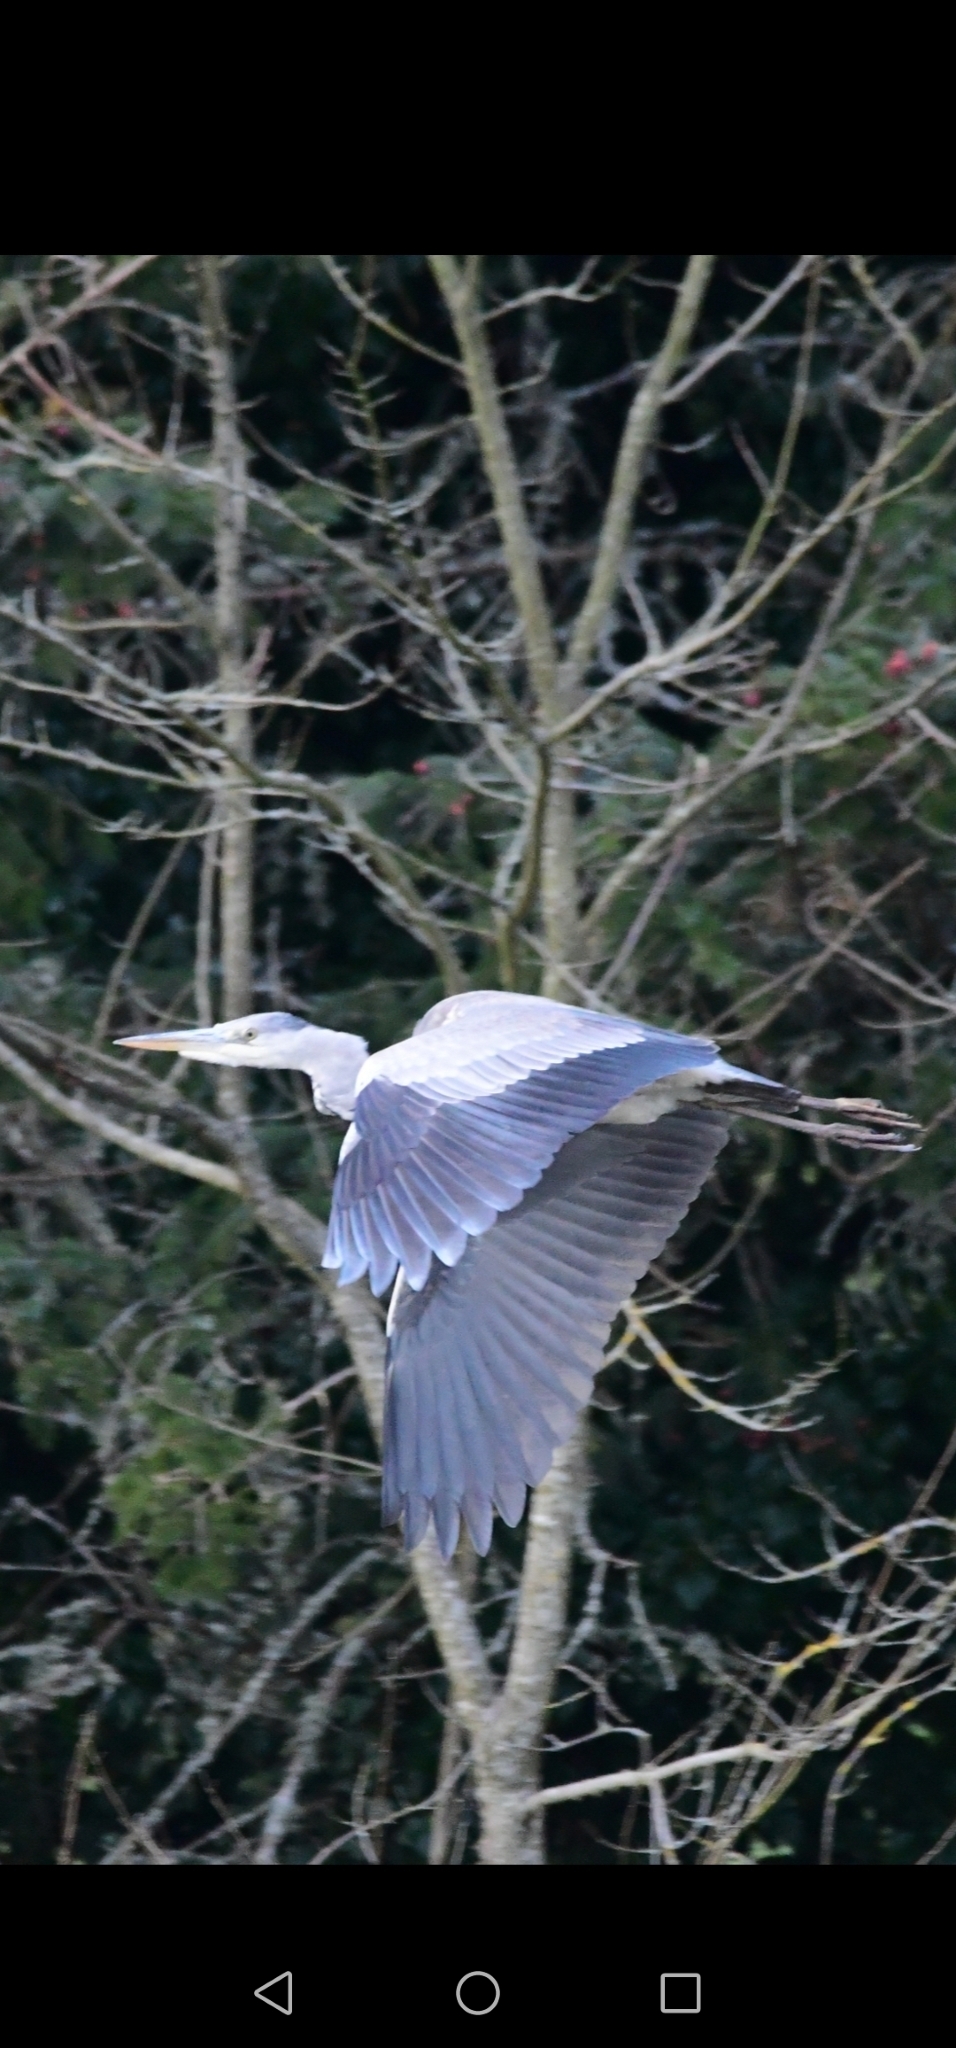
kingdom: Animalia
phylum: Chordata
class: Aves
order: Pelecaniformes
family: Ardeidae
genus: Ardea
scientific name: Ardea cinerea
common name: Grey heron
